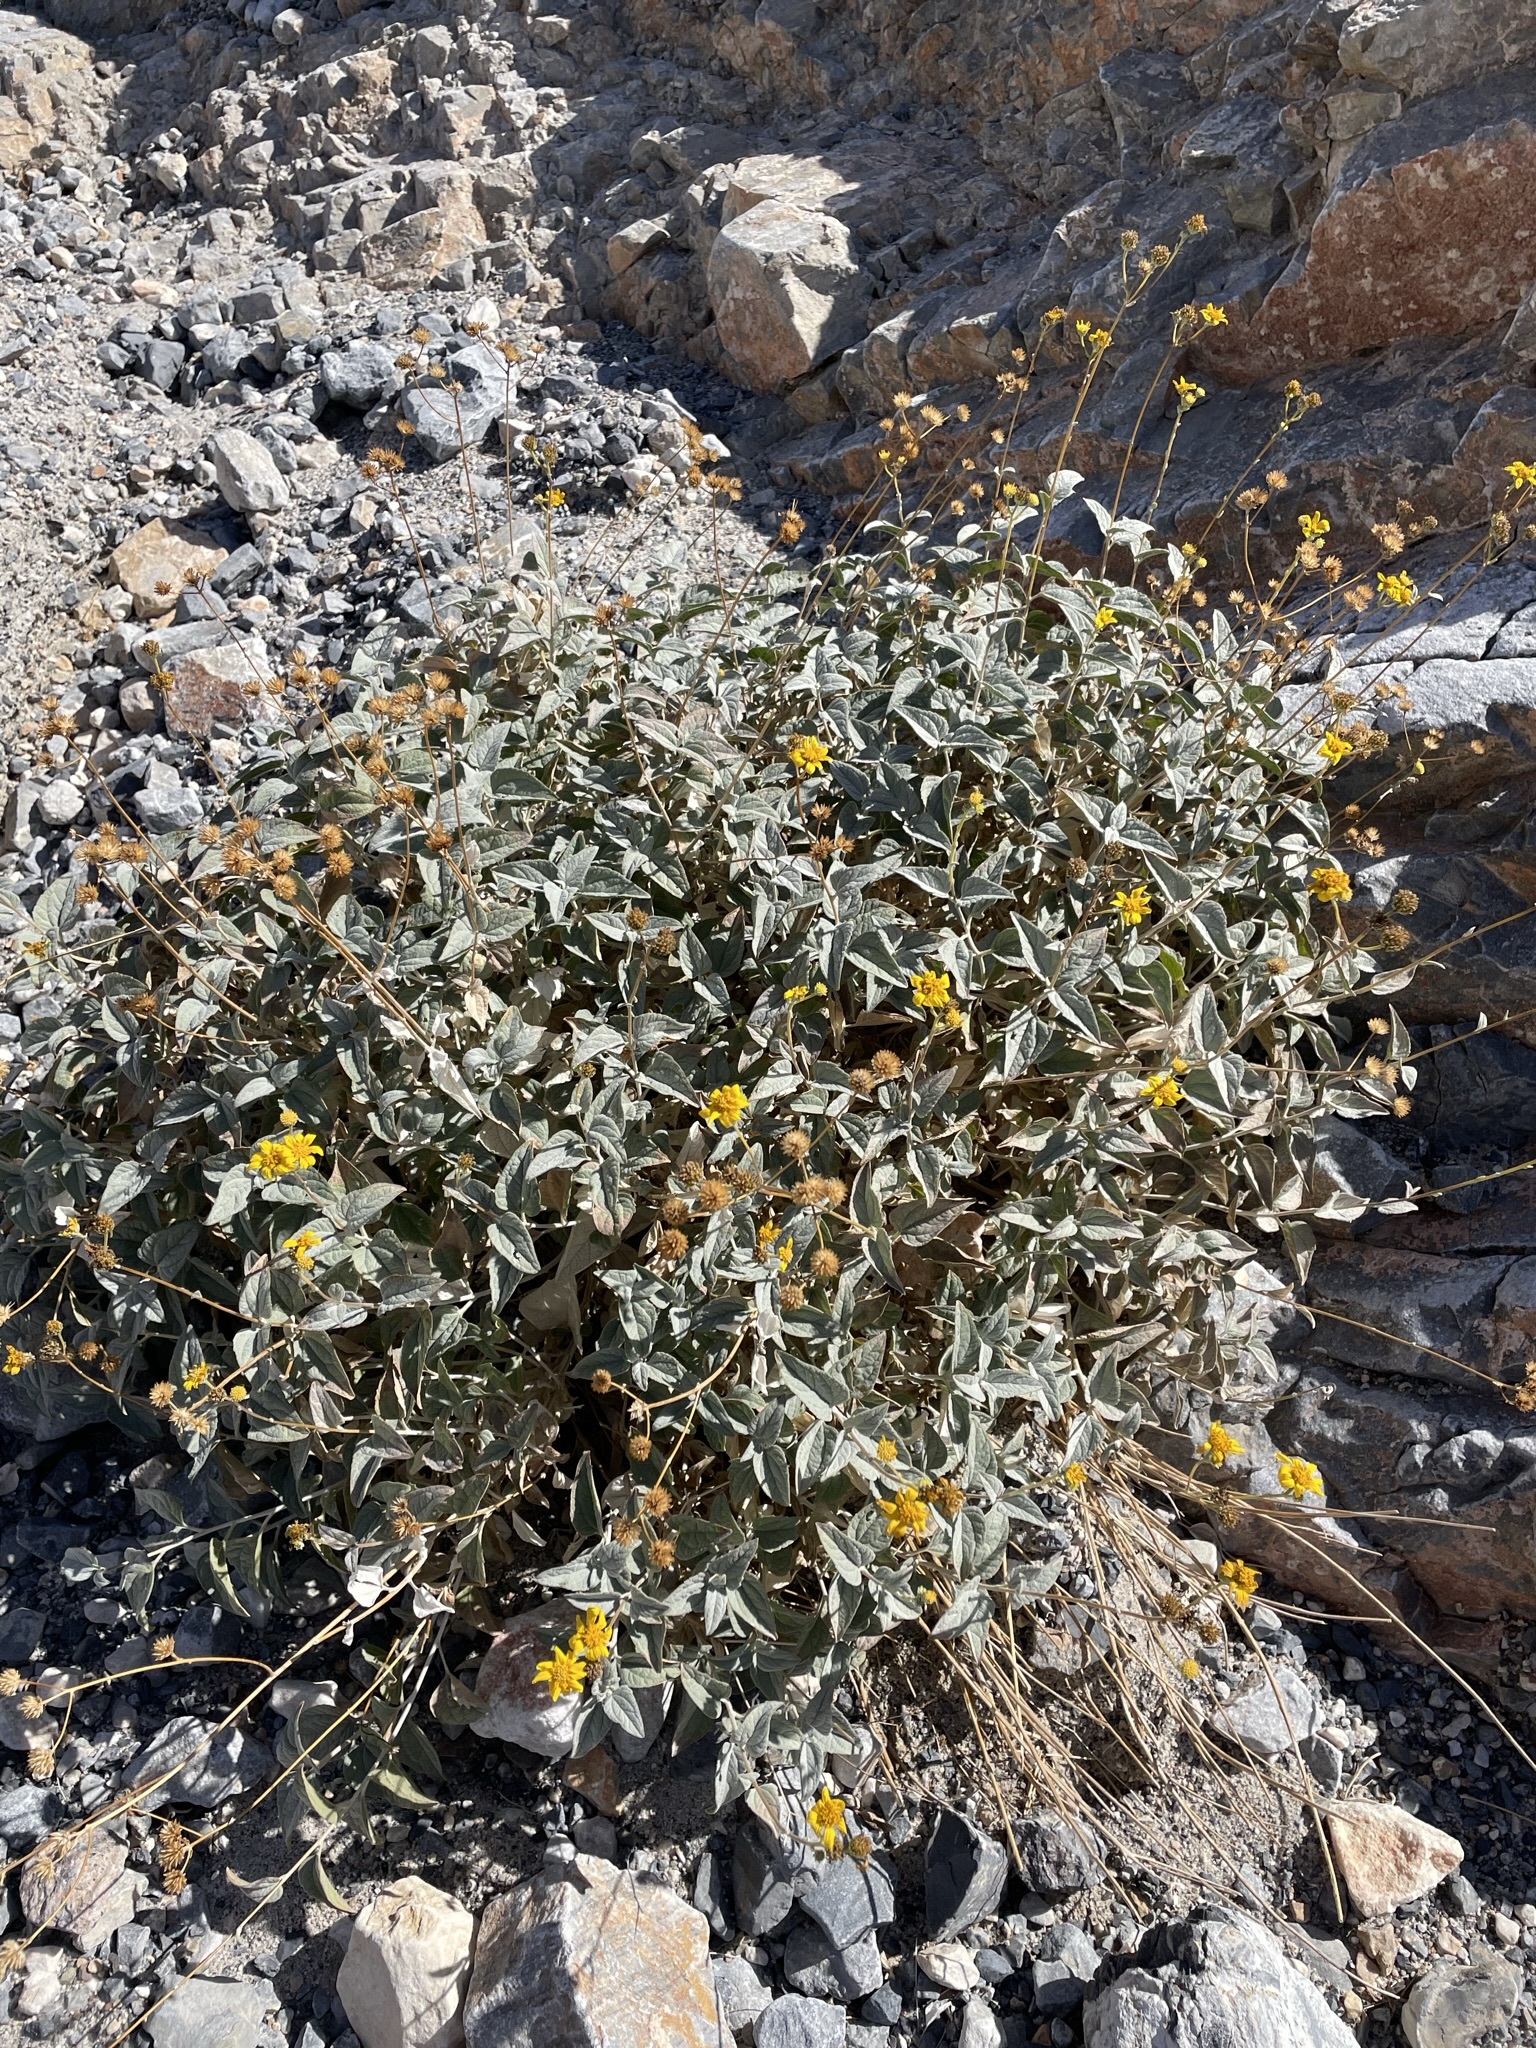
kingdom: Plantae
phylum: Tracheophyta
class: Magnoliopsida
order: Asterales
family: Asteraceae
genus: Bahiopsis
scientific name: Bahiopsis reticulata
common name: Death valley goldeneye
